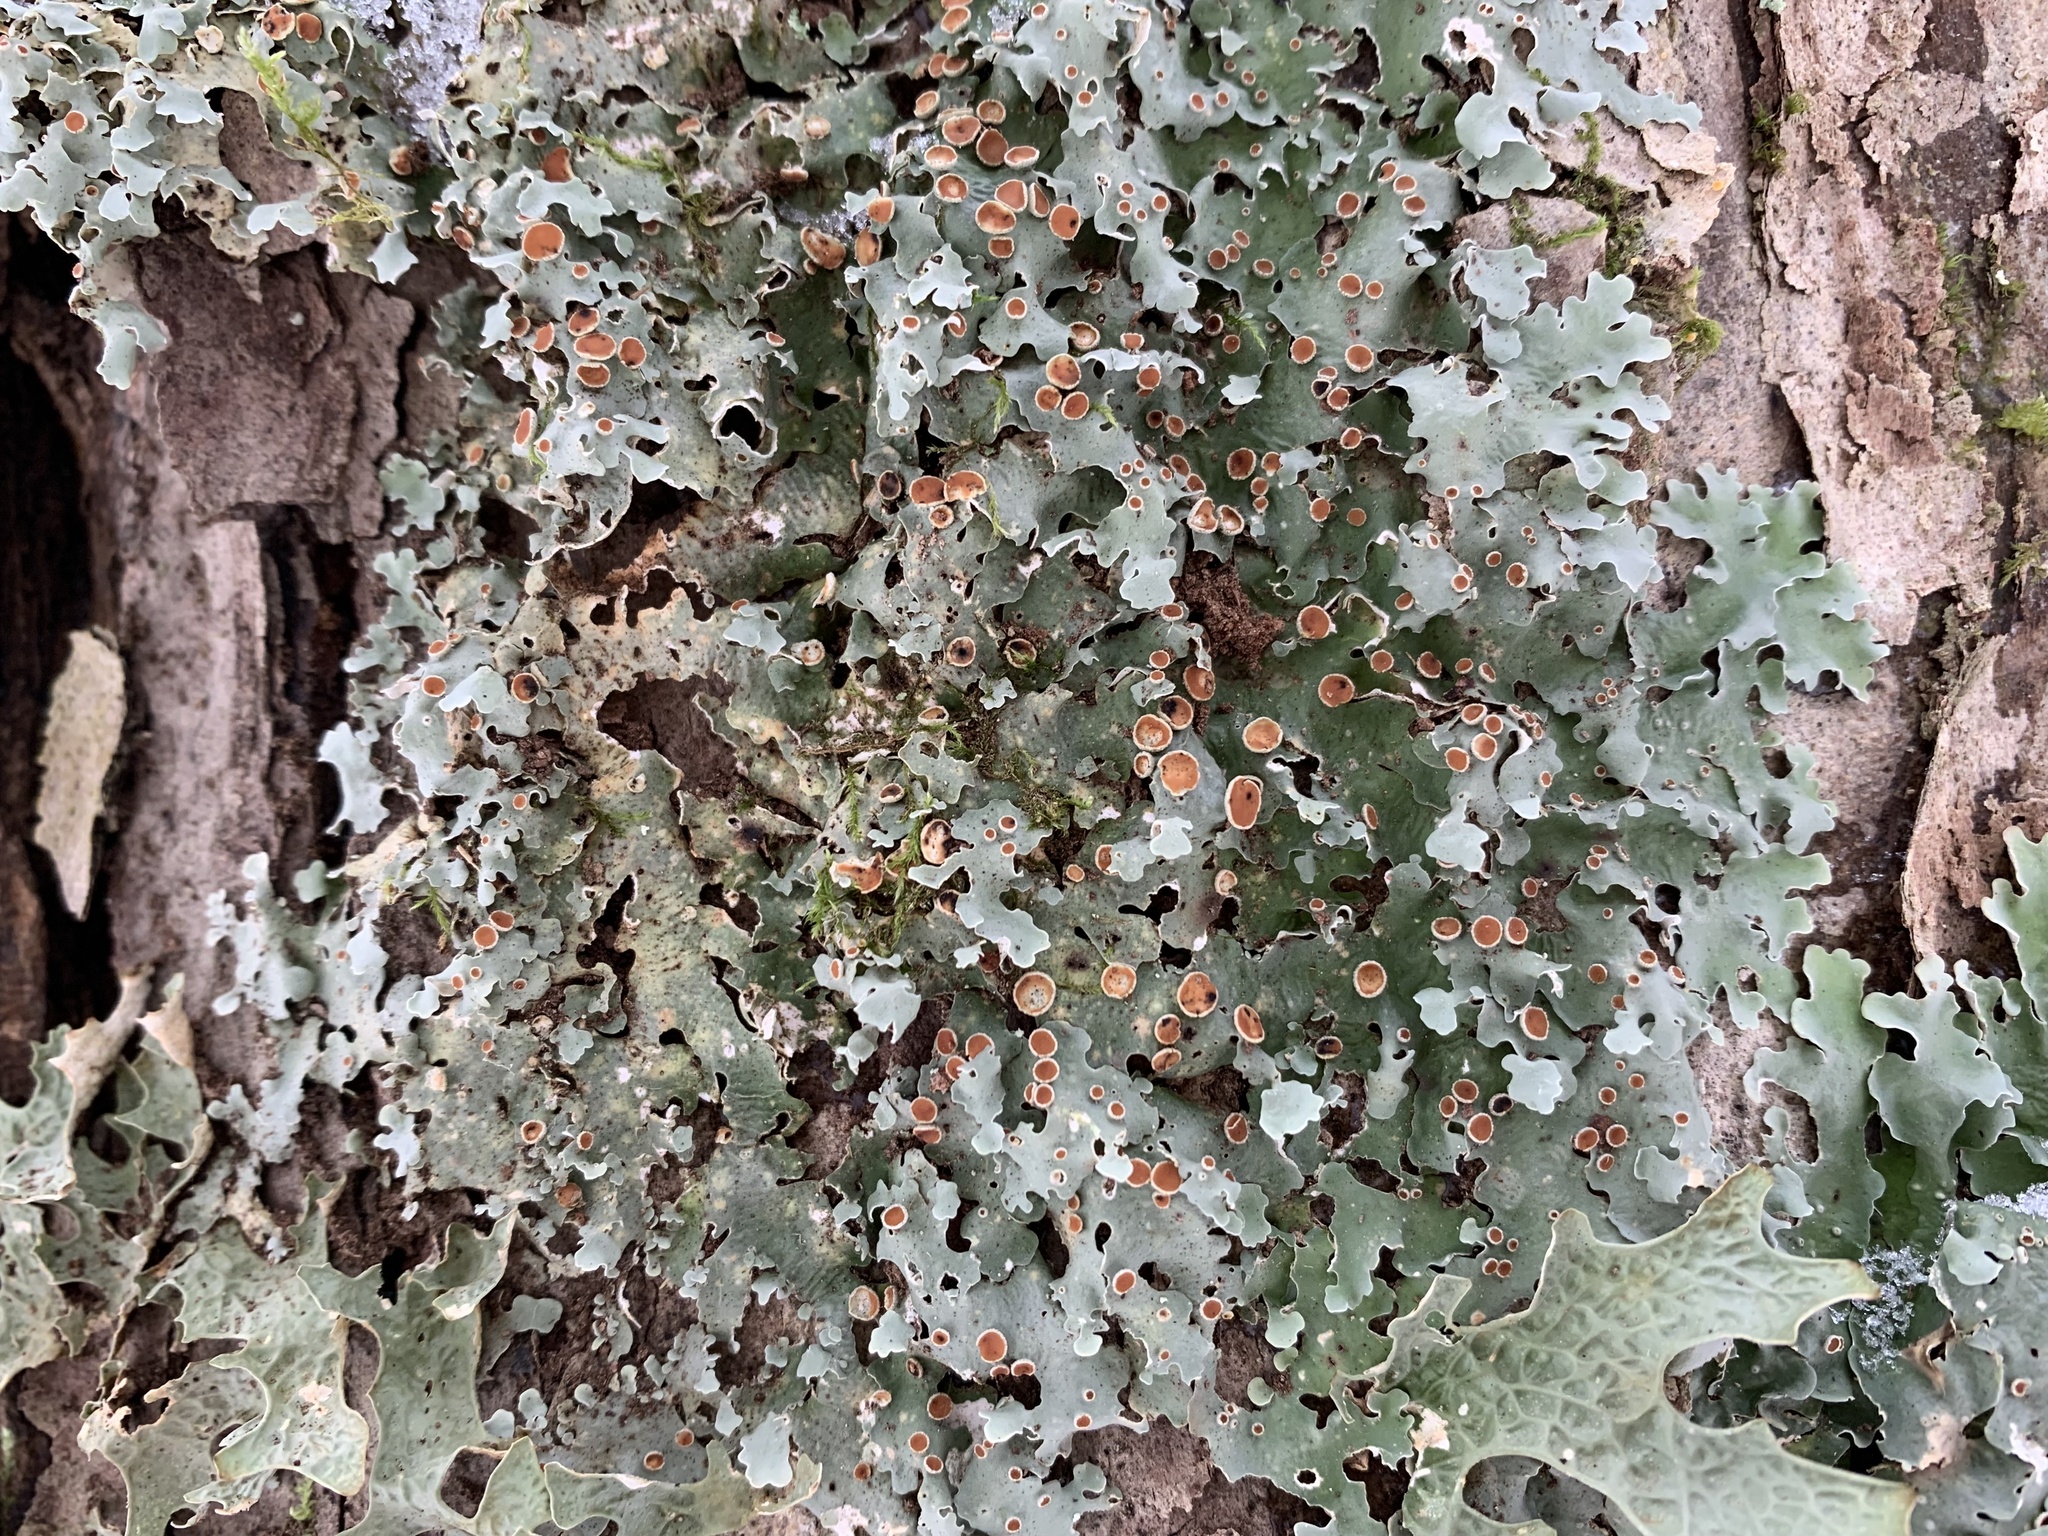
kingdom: Fungi
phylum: Ascomycota
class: Lecanoromycetes
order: Peltigerales
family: Lobariaceae
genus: Ricasolia
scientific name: Ricasolia quercizans
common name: Smooth lungwort
